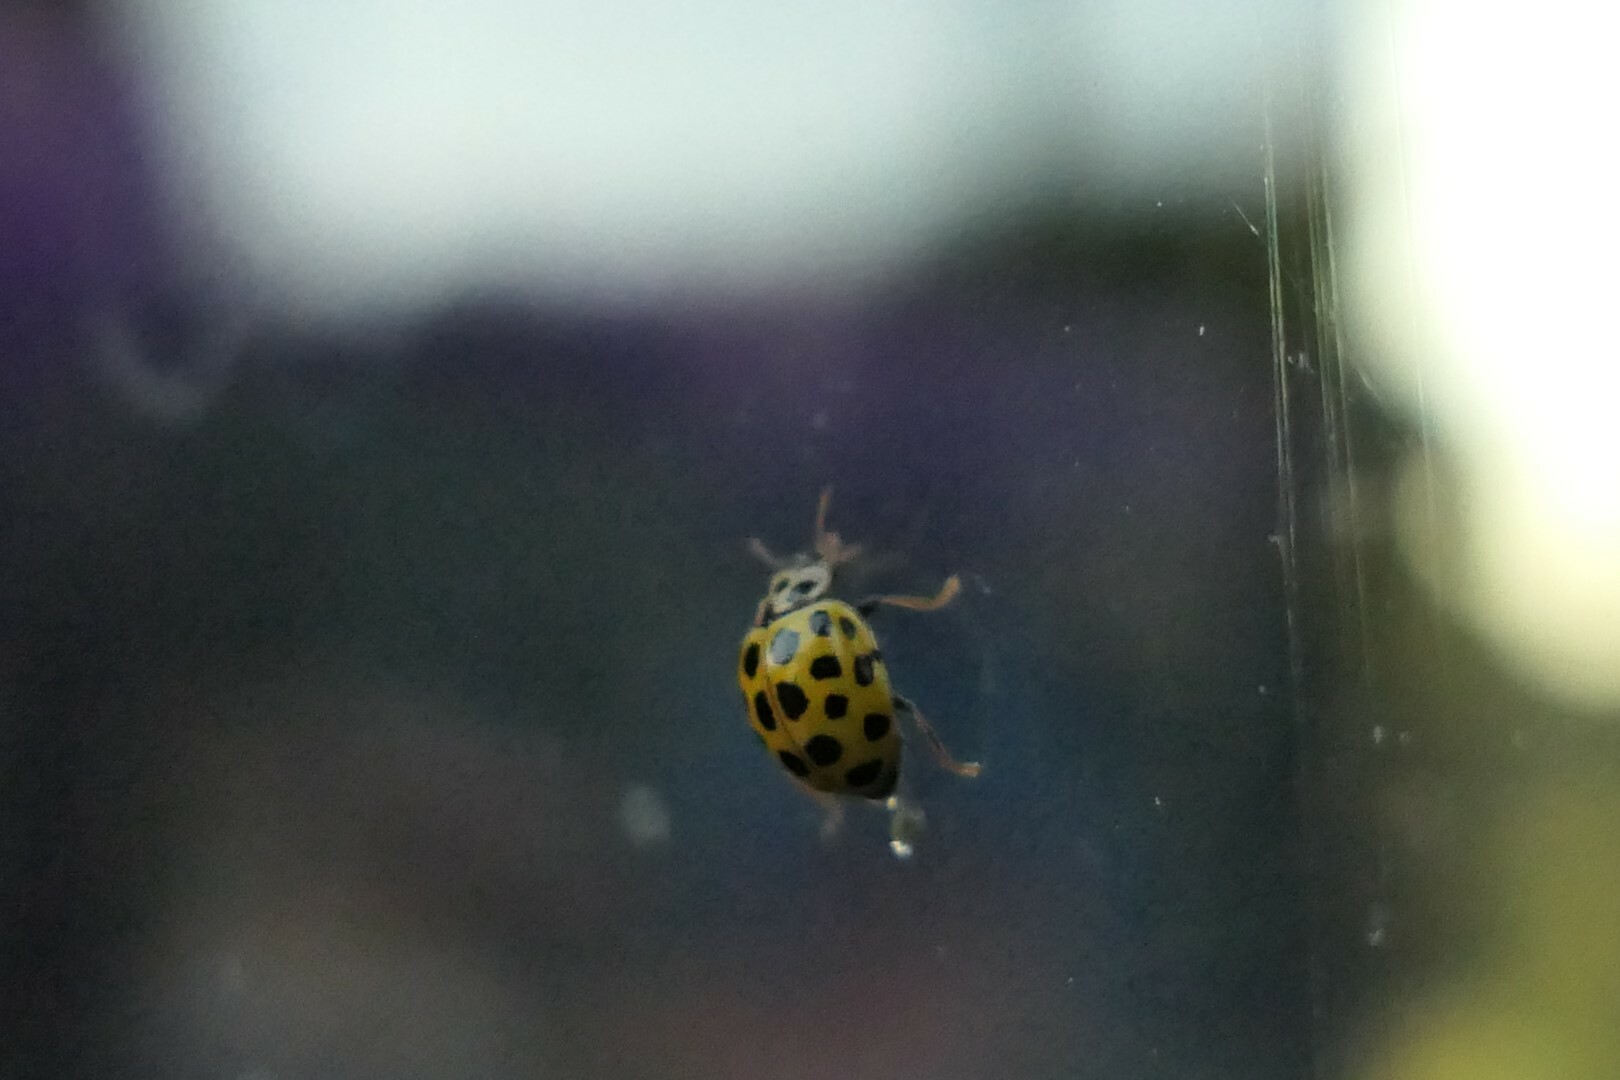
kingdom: Animalia
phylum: Arthropoda
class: Insecta
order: Coleoptera
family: Coccinellidae
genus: Psyllobora
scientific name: Psyllobora vigintiduopunctata
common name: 22-spot ladybird
